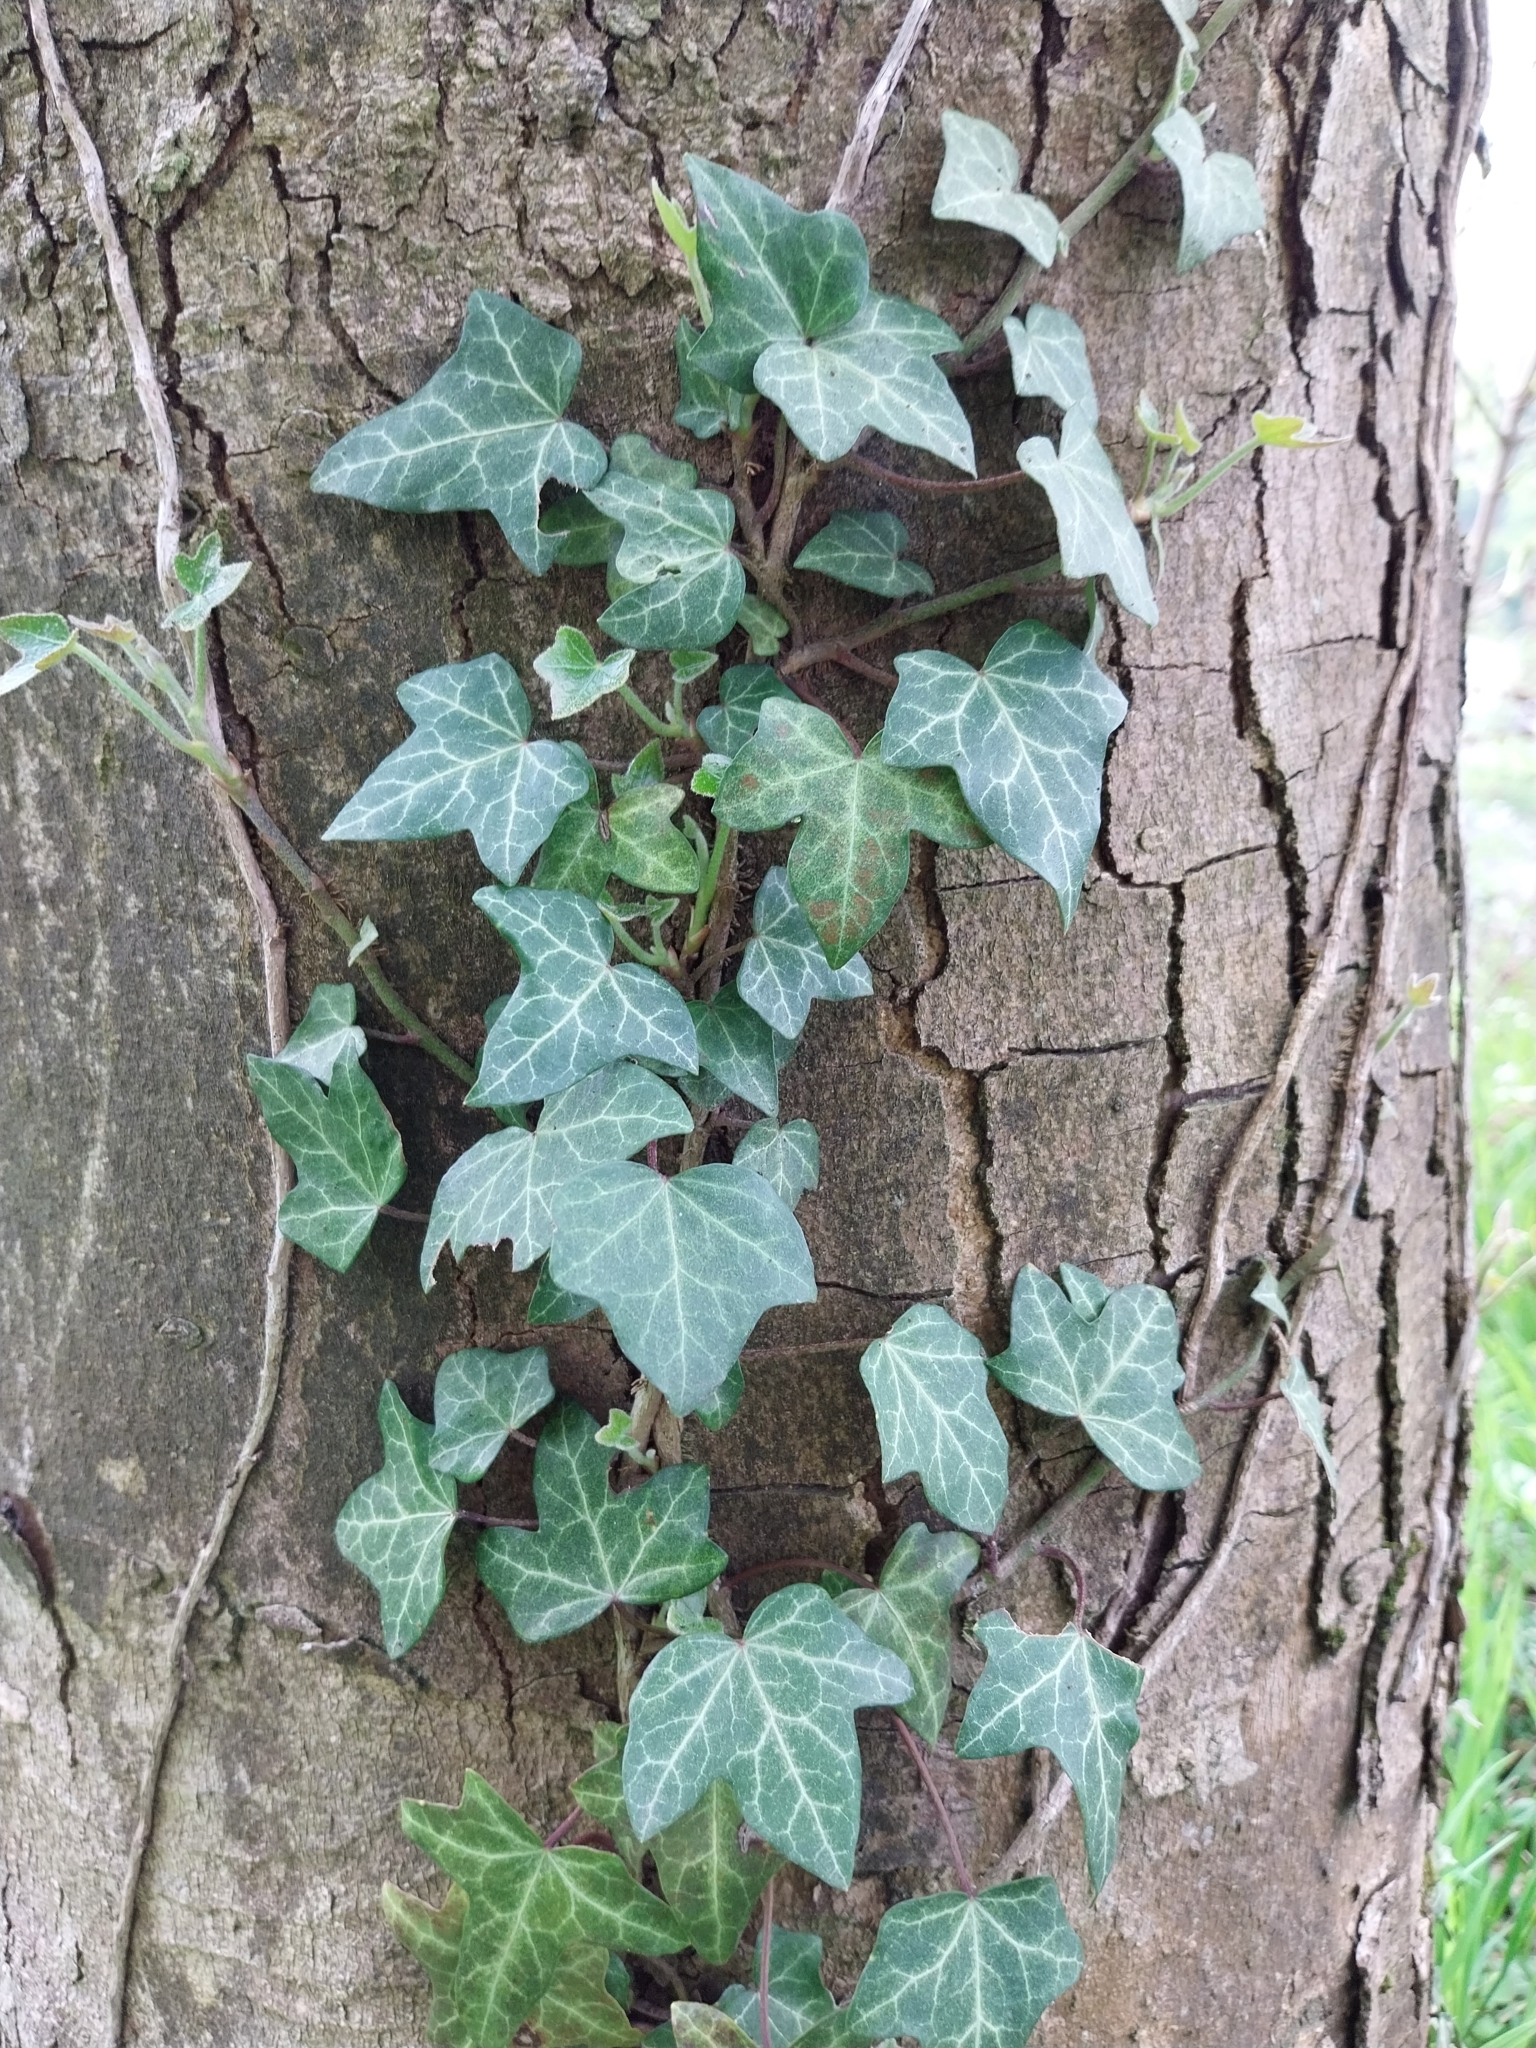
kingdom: Plantae
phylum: Tracheophyta
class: Magnoliopsida
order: Apiales
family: Araliaceae
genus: Hedera
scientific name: Hedera helix
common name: Ivy
